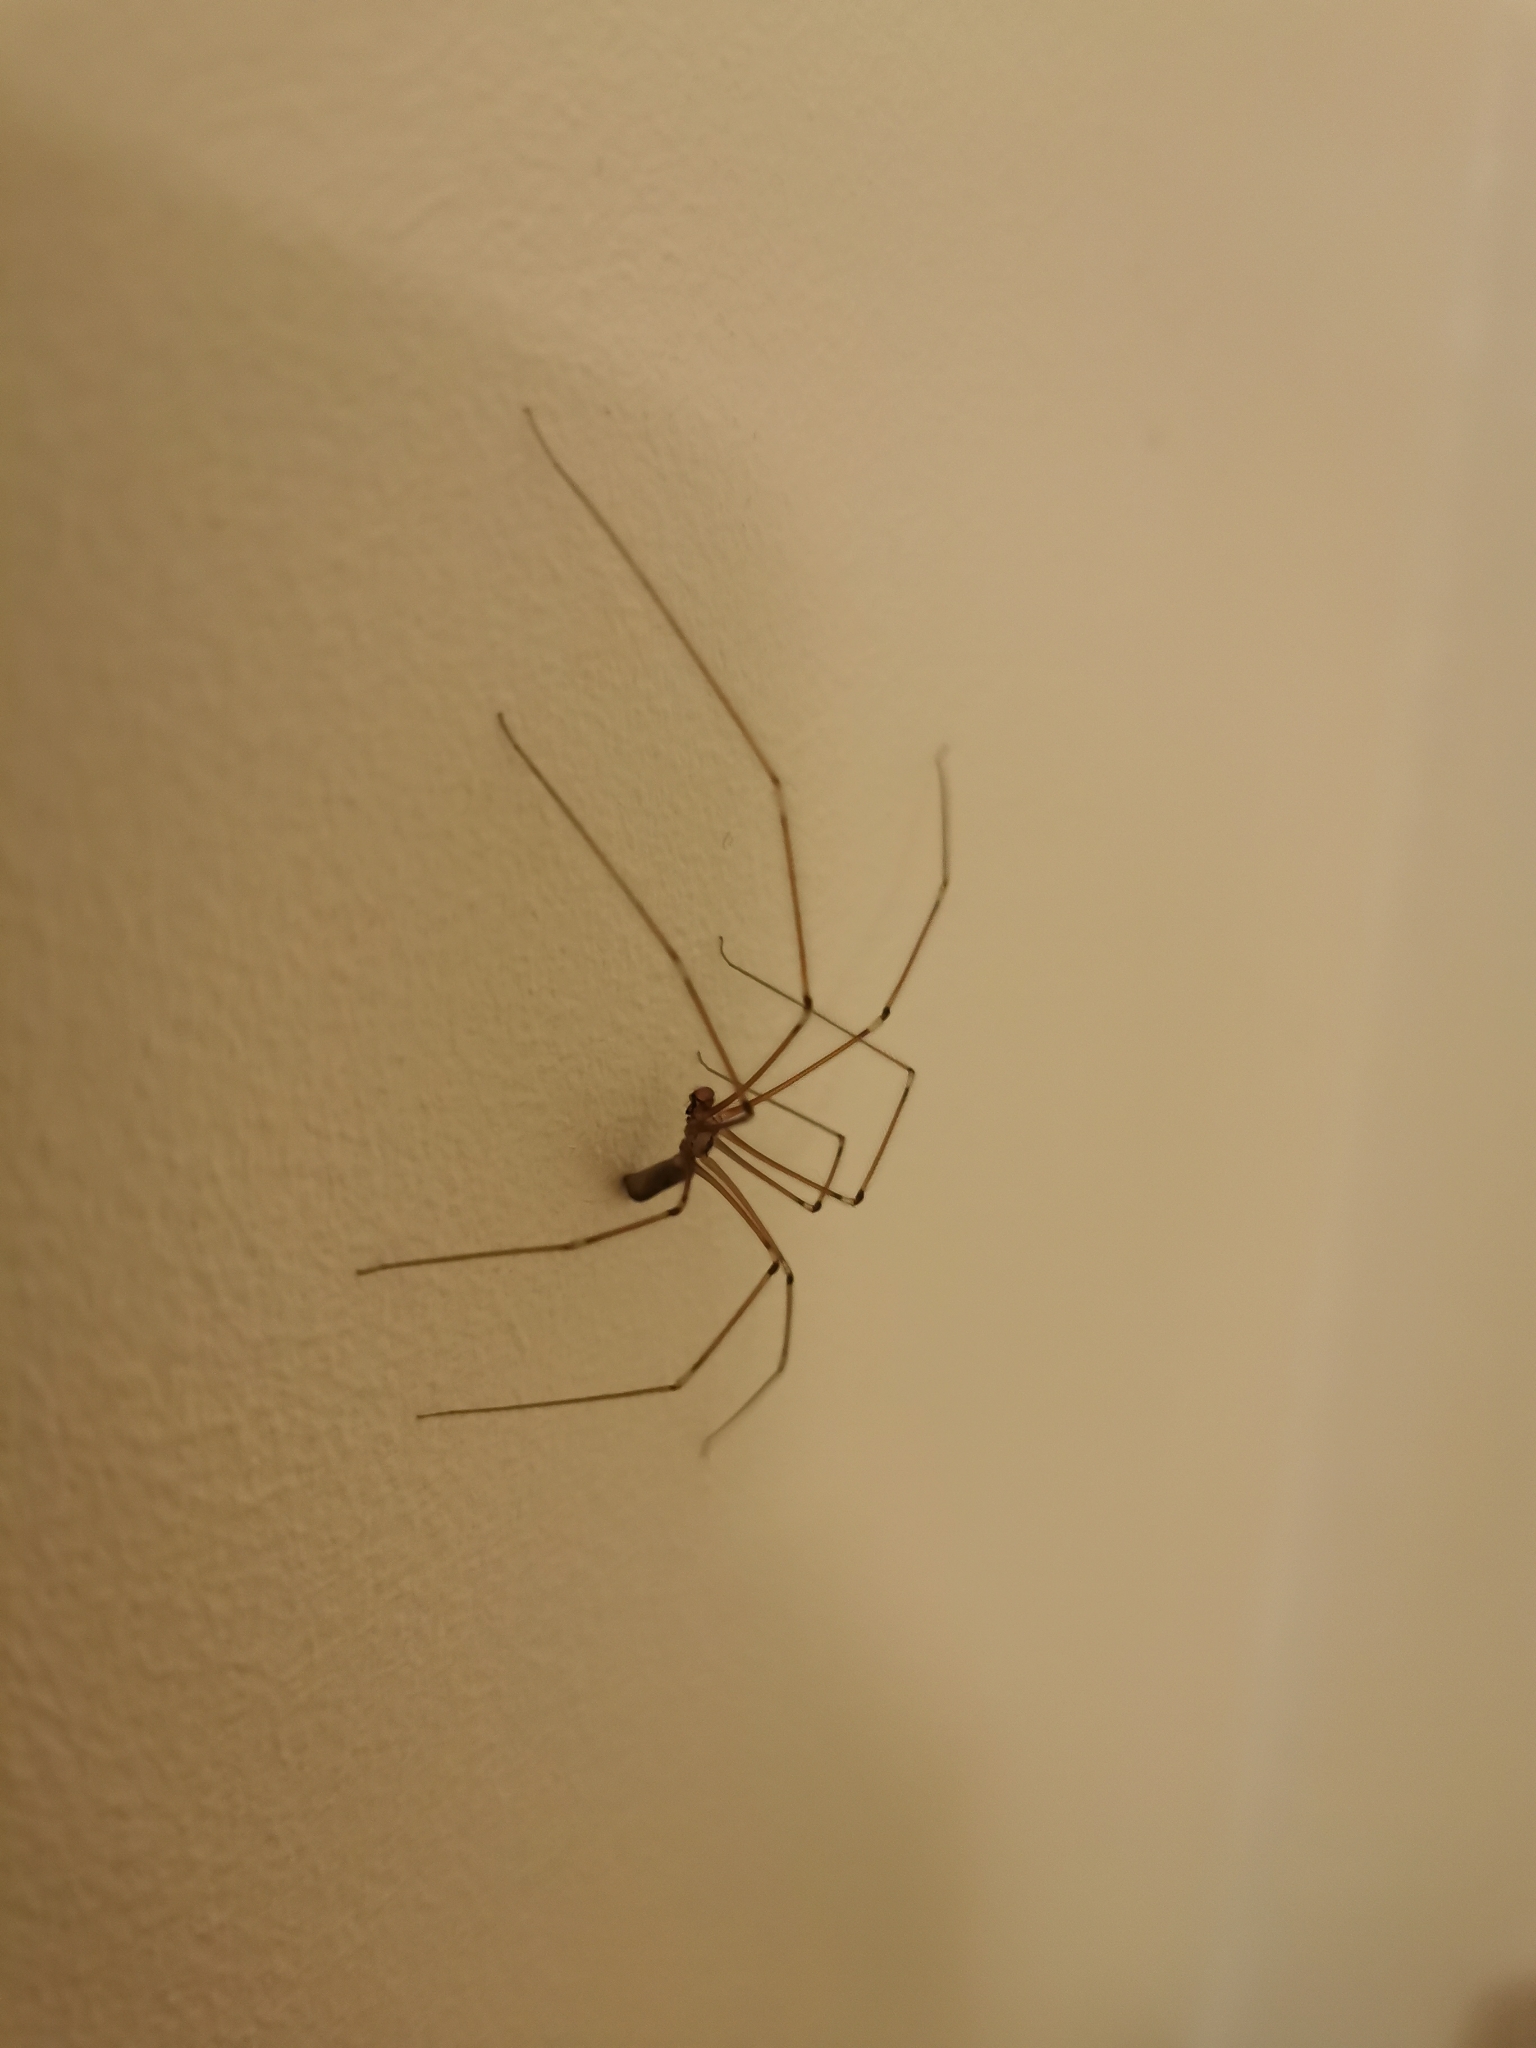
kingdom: Animalia
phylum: Arthropoda
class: Arachnida
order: Araneae
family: Pholcidae
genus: Pholcus
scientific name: Pholcus phalangioides
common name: Longbodied cellar spider
